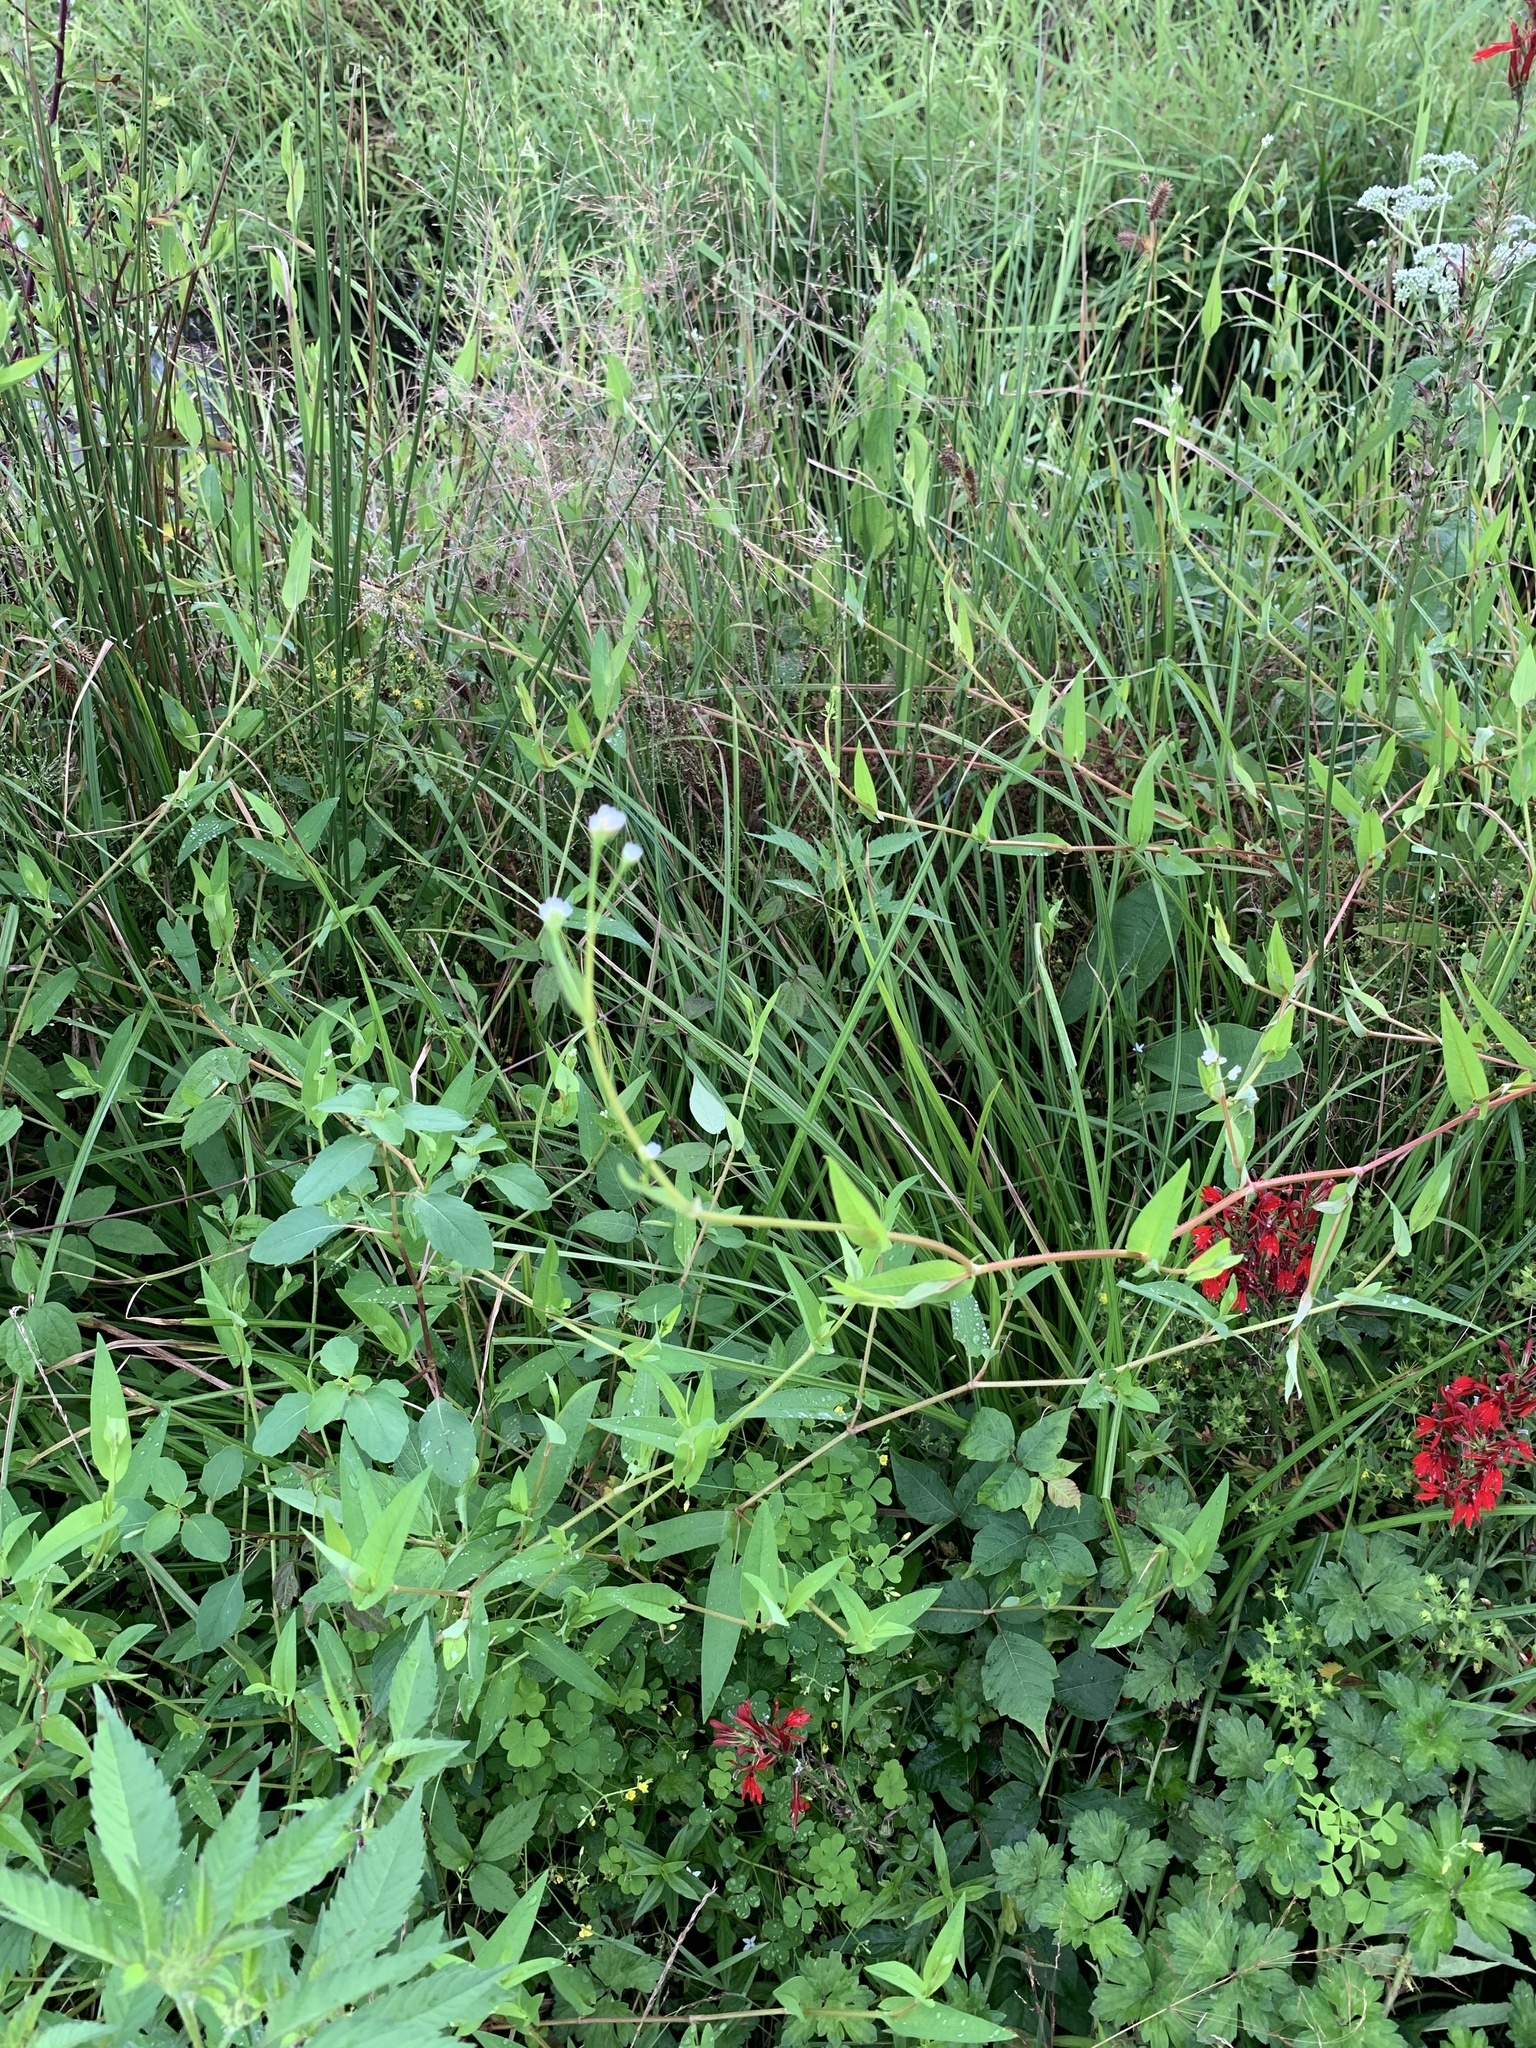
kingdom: Plantae
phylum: Tracheophyta
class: Magnoliopsida
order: Caryophyllales
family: Polygonaceae
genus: Persicaria
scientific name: Persicaria sagittata
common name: American tearthumb
